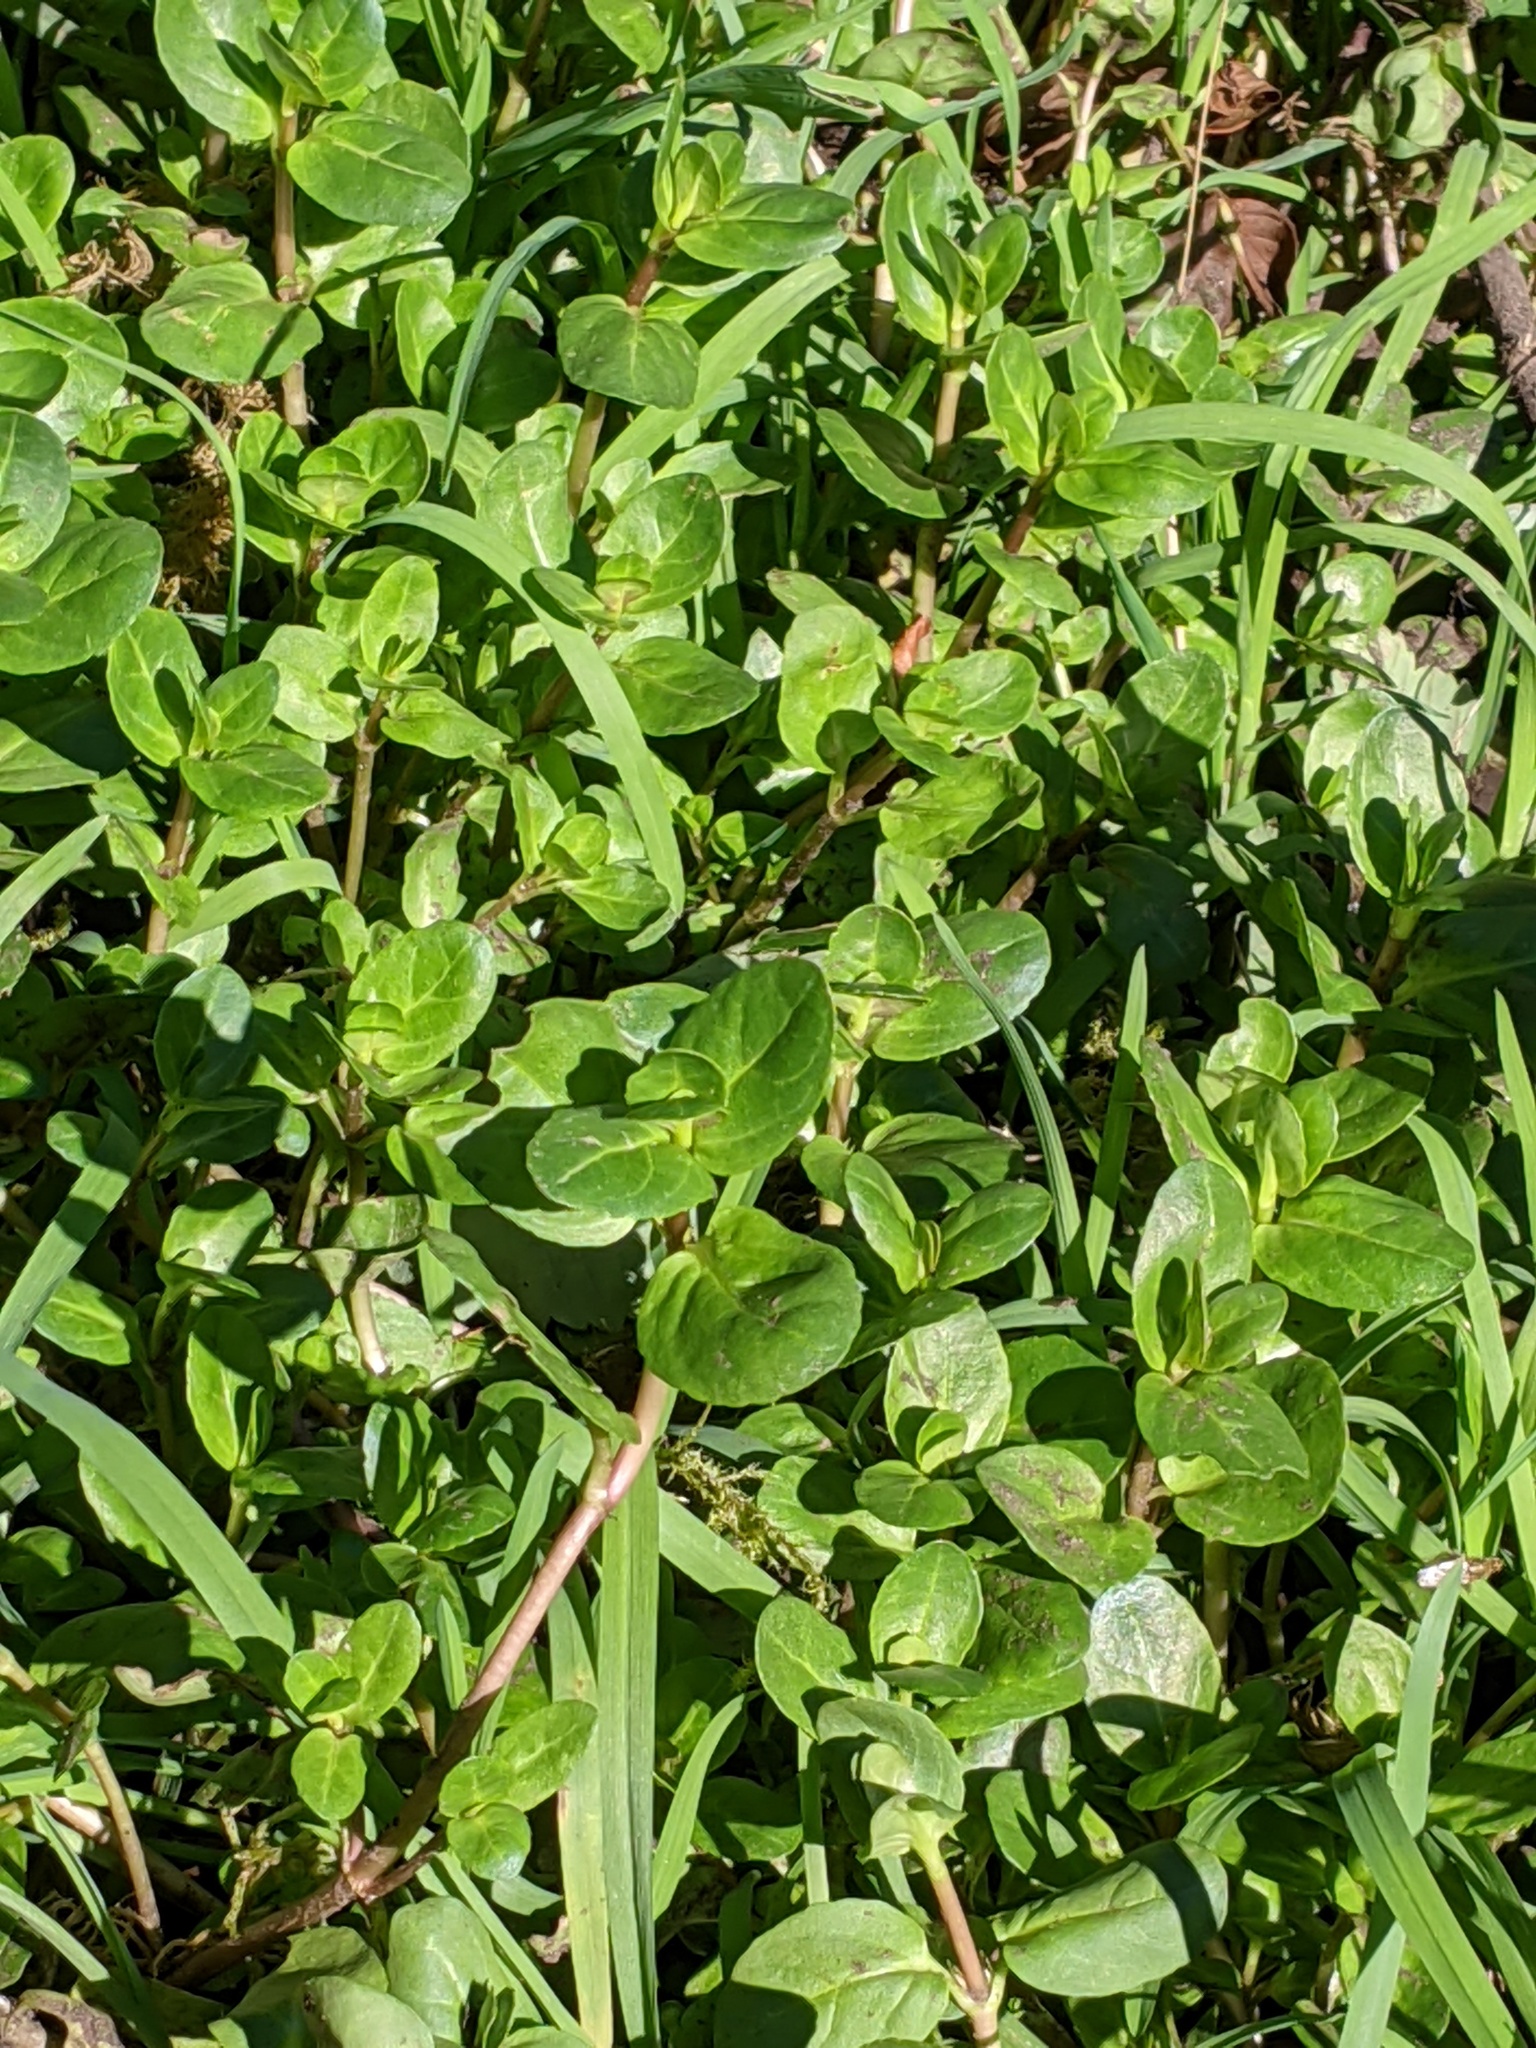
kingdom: Plantae
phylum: Tracheophyta
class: Magnoliopsida
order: Lamiales
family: Plantaginaceae
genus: Veronica
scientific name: Veronica beccabunga
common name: Brooklime
